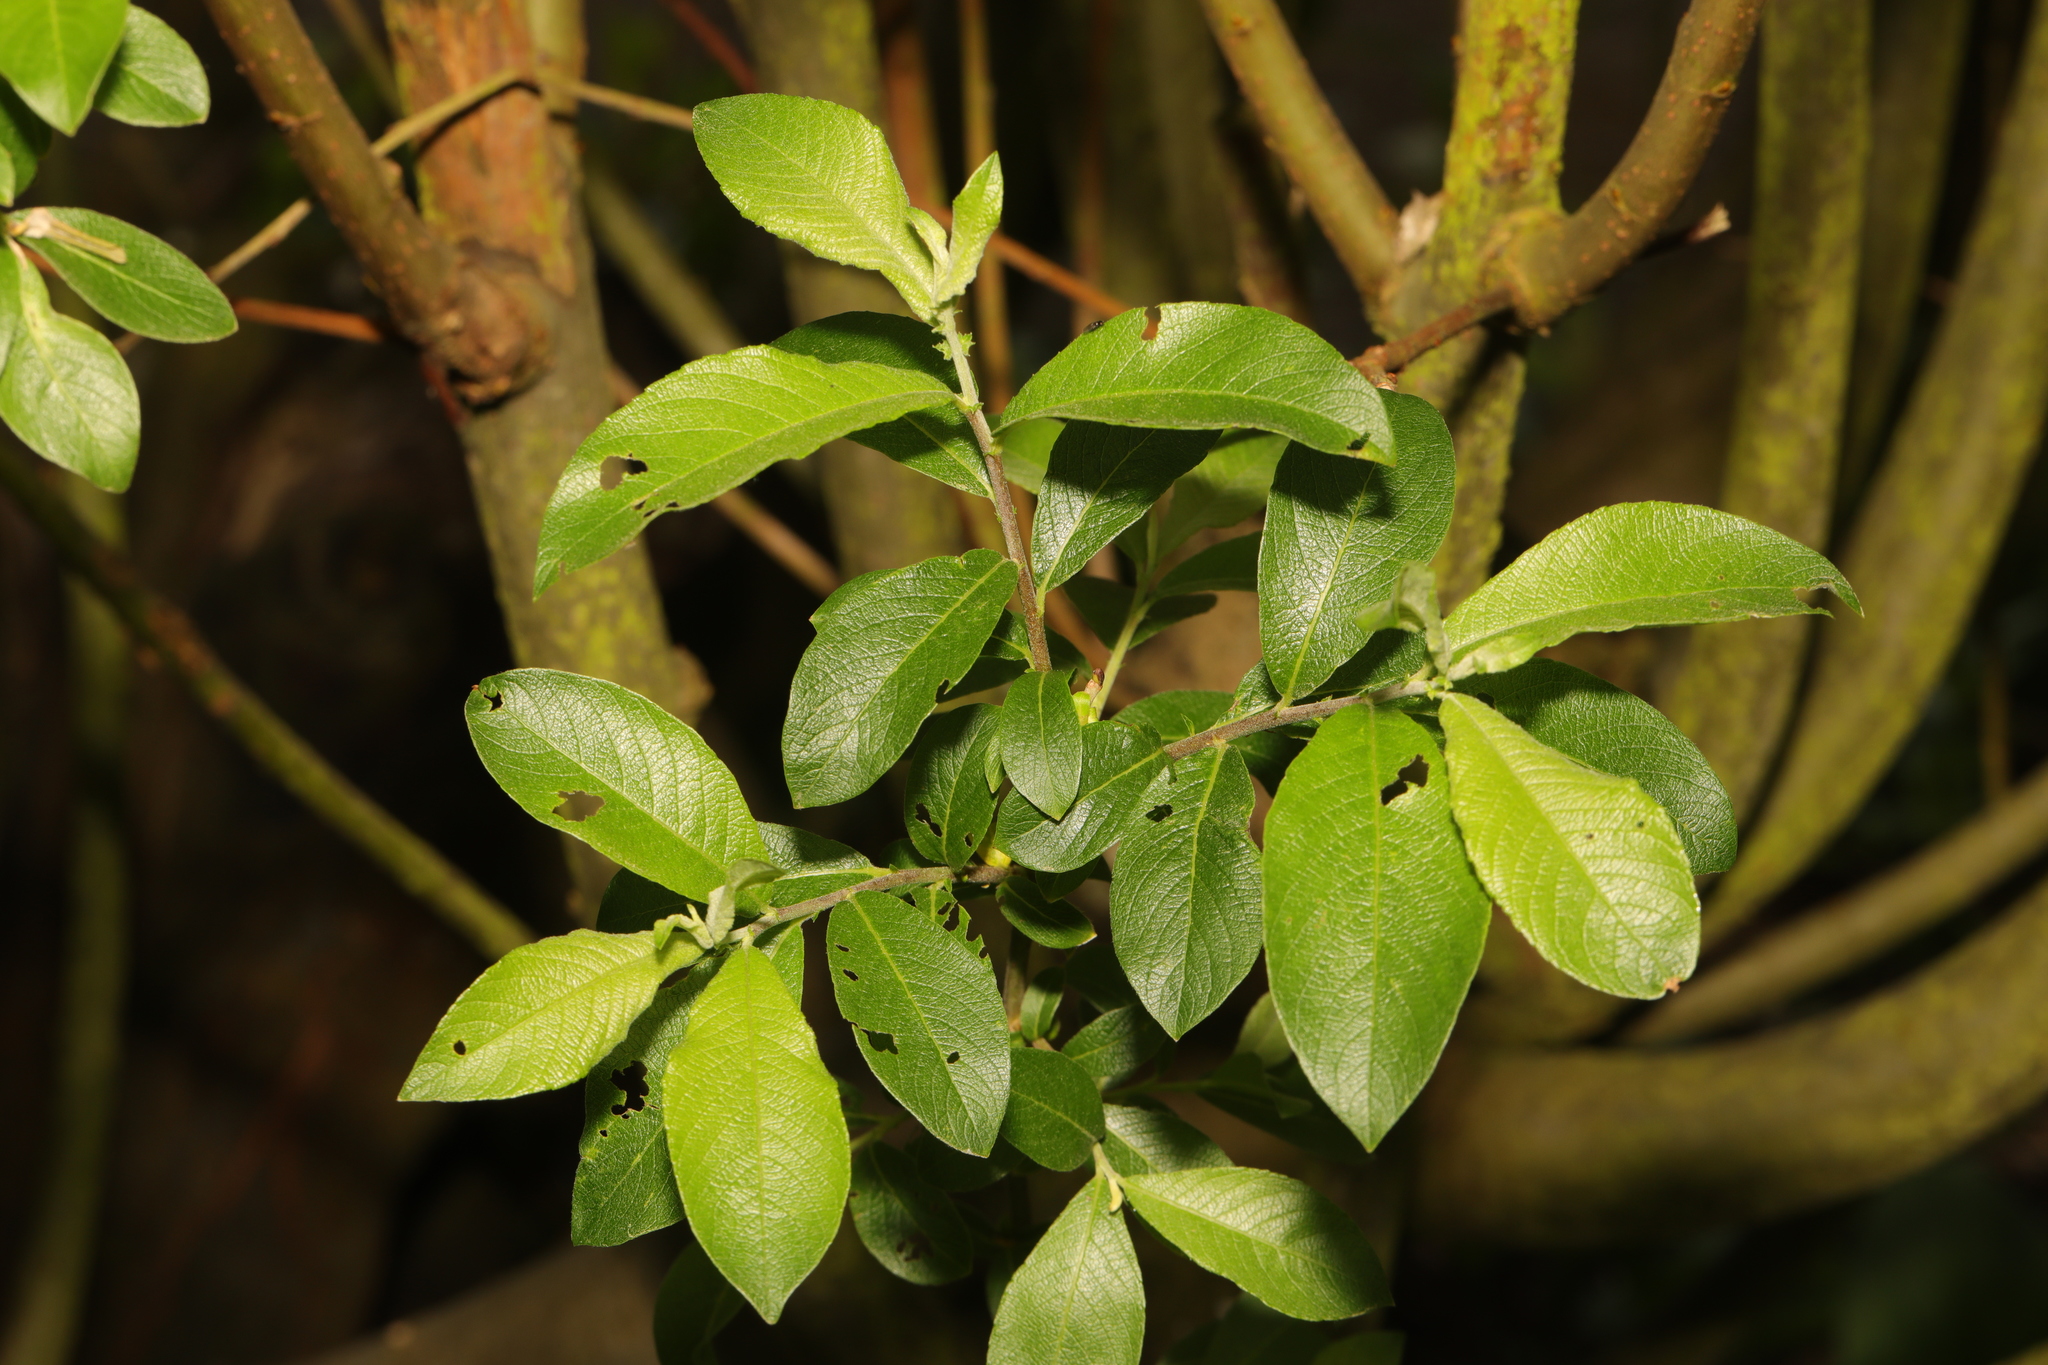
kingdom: Plantae
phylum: Tracheophyta
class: Magnoliopsida
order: Malpighiales
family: Salicaceae
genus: Salix
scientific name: Salix cinerea
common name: Common sallow
